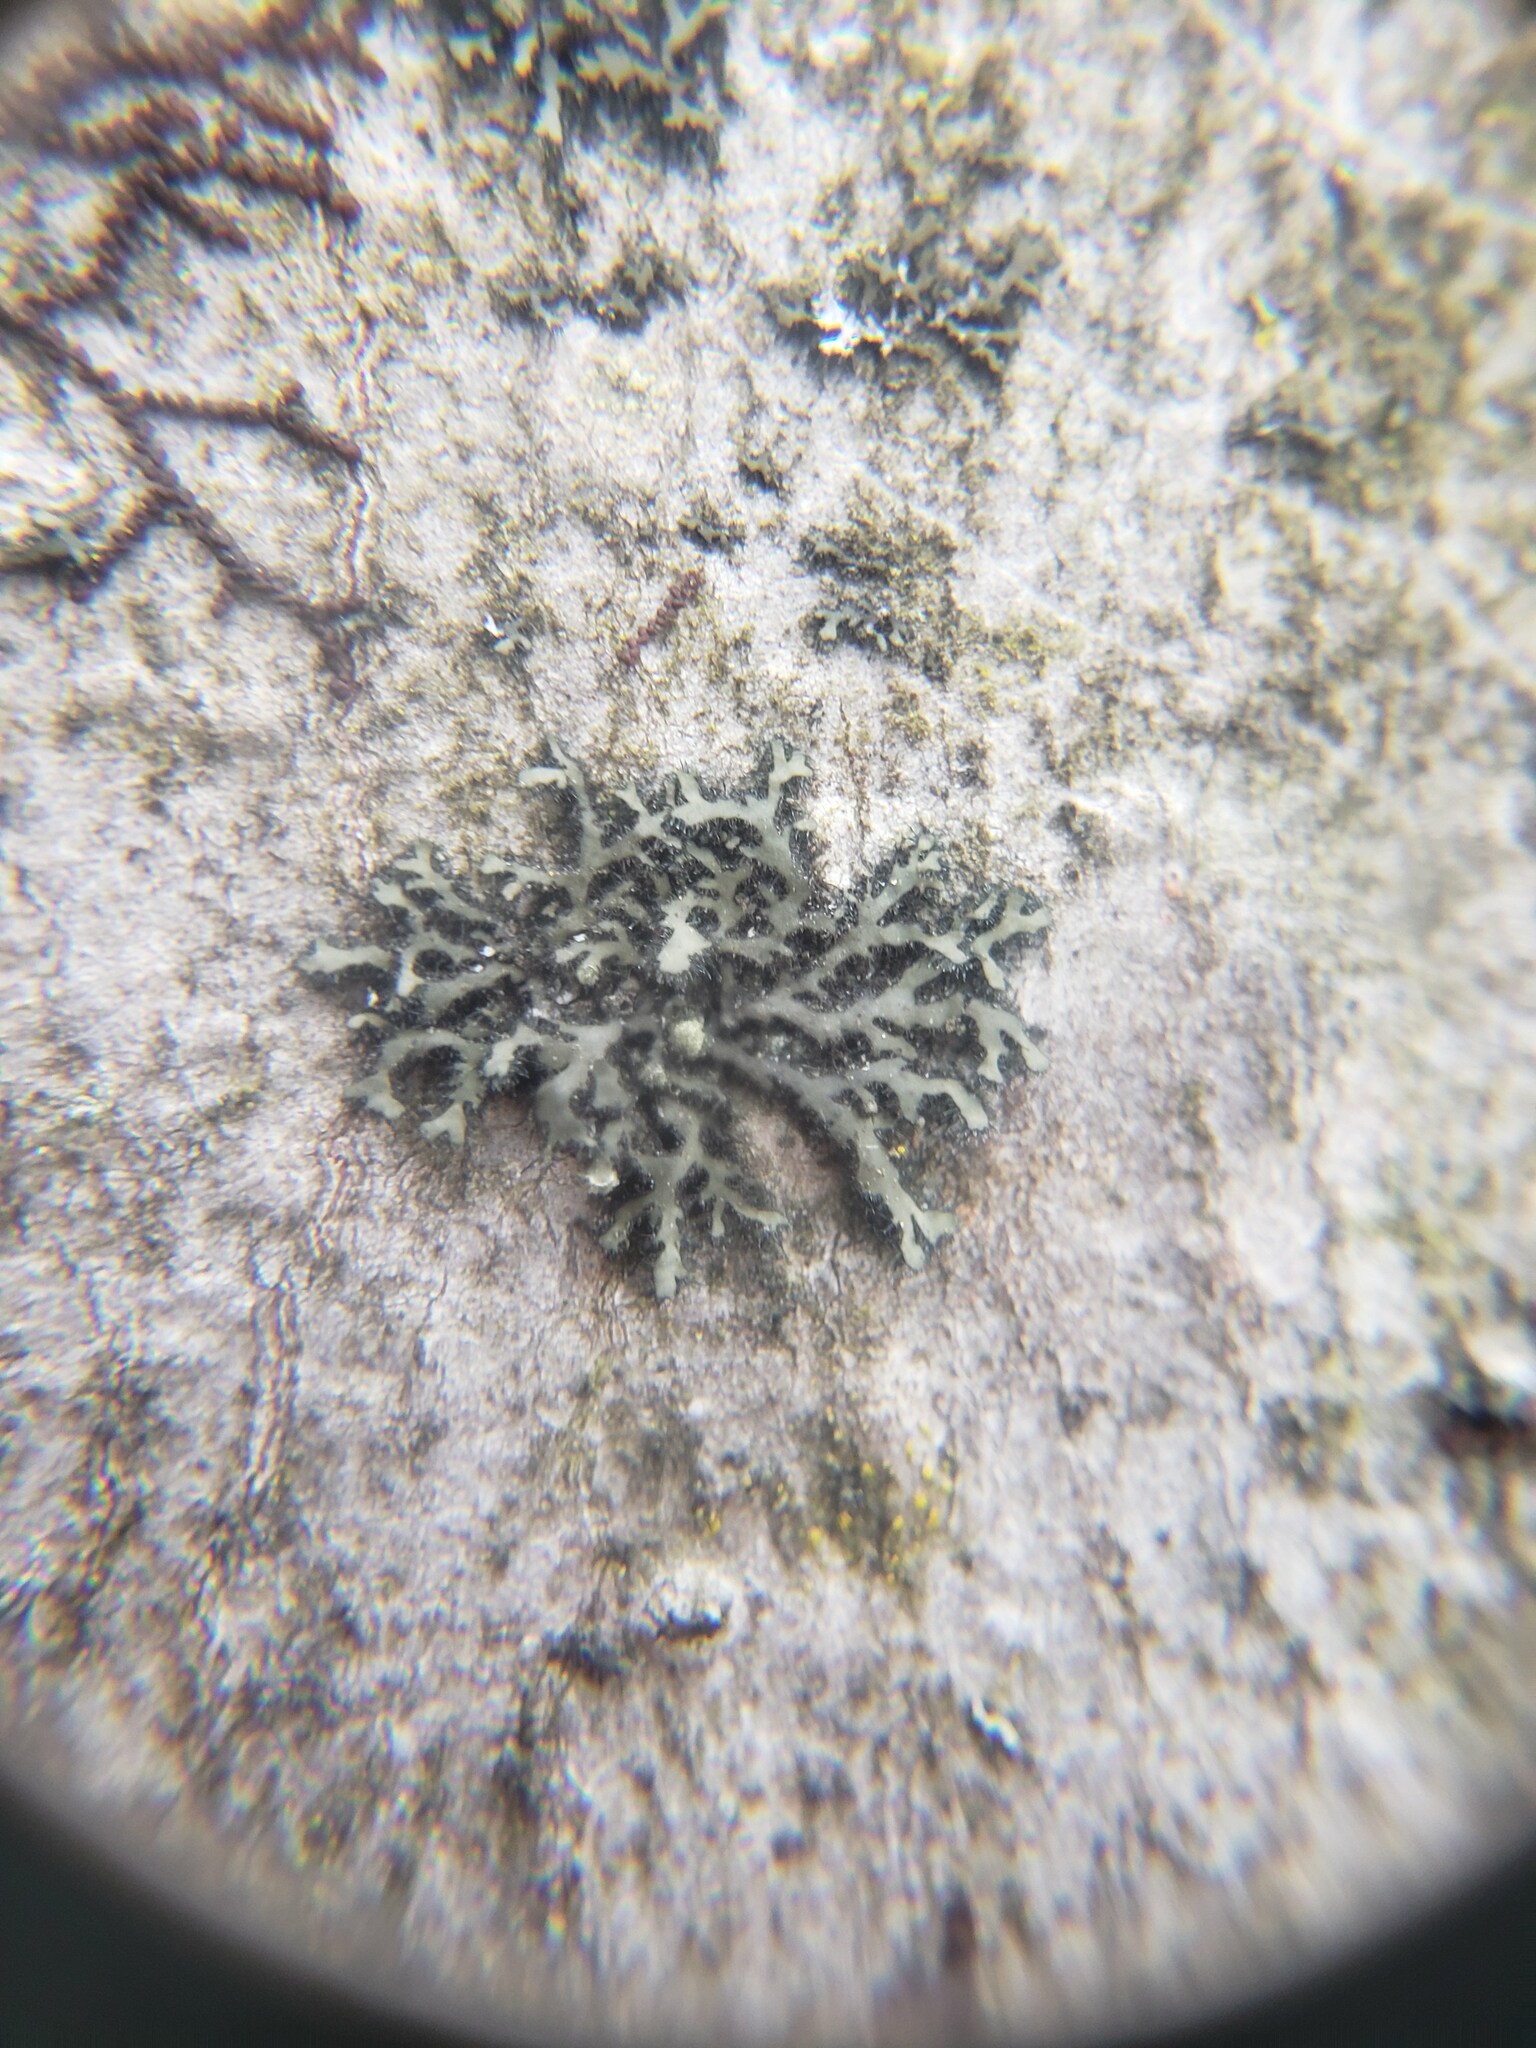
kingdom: Fungi
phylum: Ascomycota
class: Lecanoromycetes
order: Caliciales
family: Physciaceae
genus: Phaeophyscia
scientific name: Phaeophyscia rubropulchra
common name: Orange-cored shadow lichen
